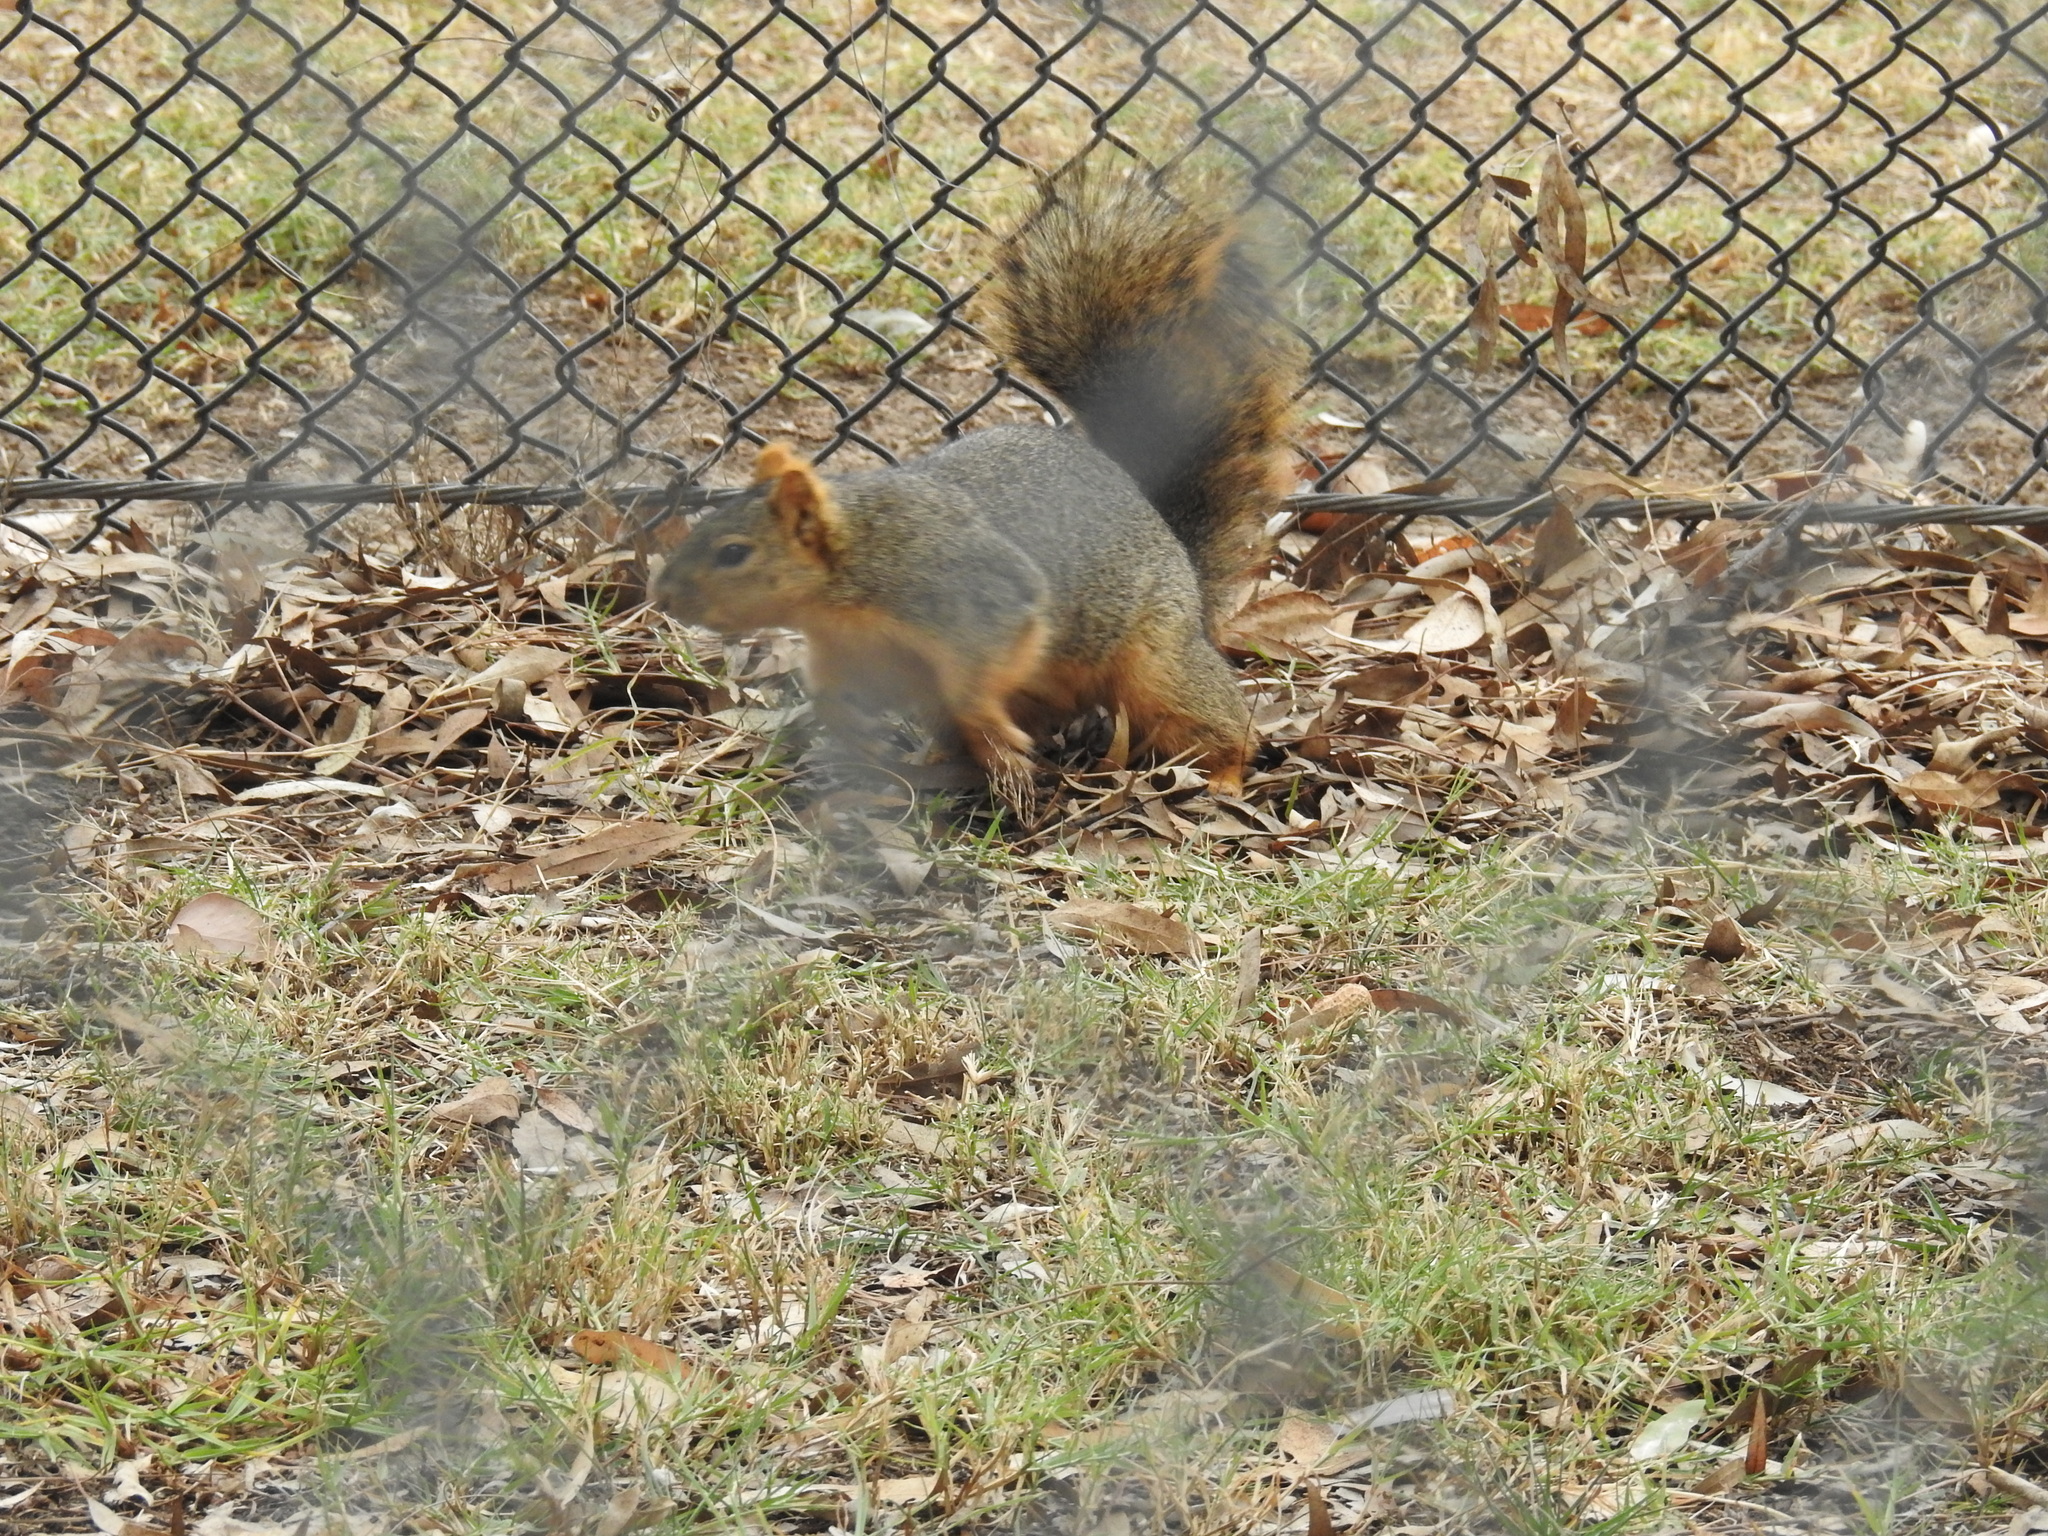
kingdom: Animalia
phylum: Chordata
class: Mammalia
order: Rodentia
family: Sciuridae
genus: Sciurus
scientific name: Sciurus niger
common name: Fox squirrel
